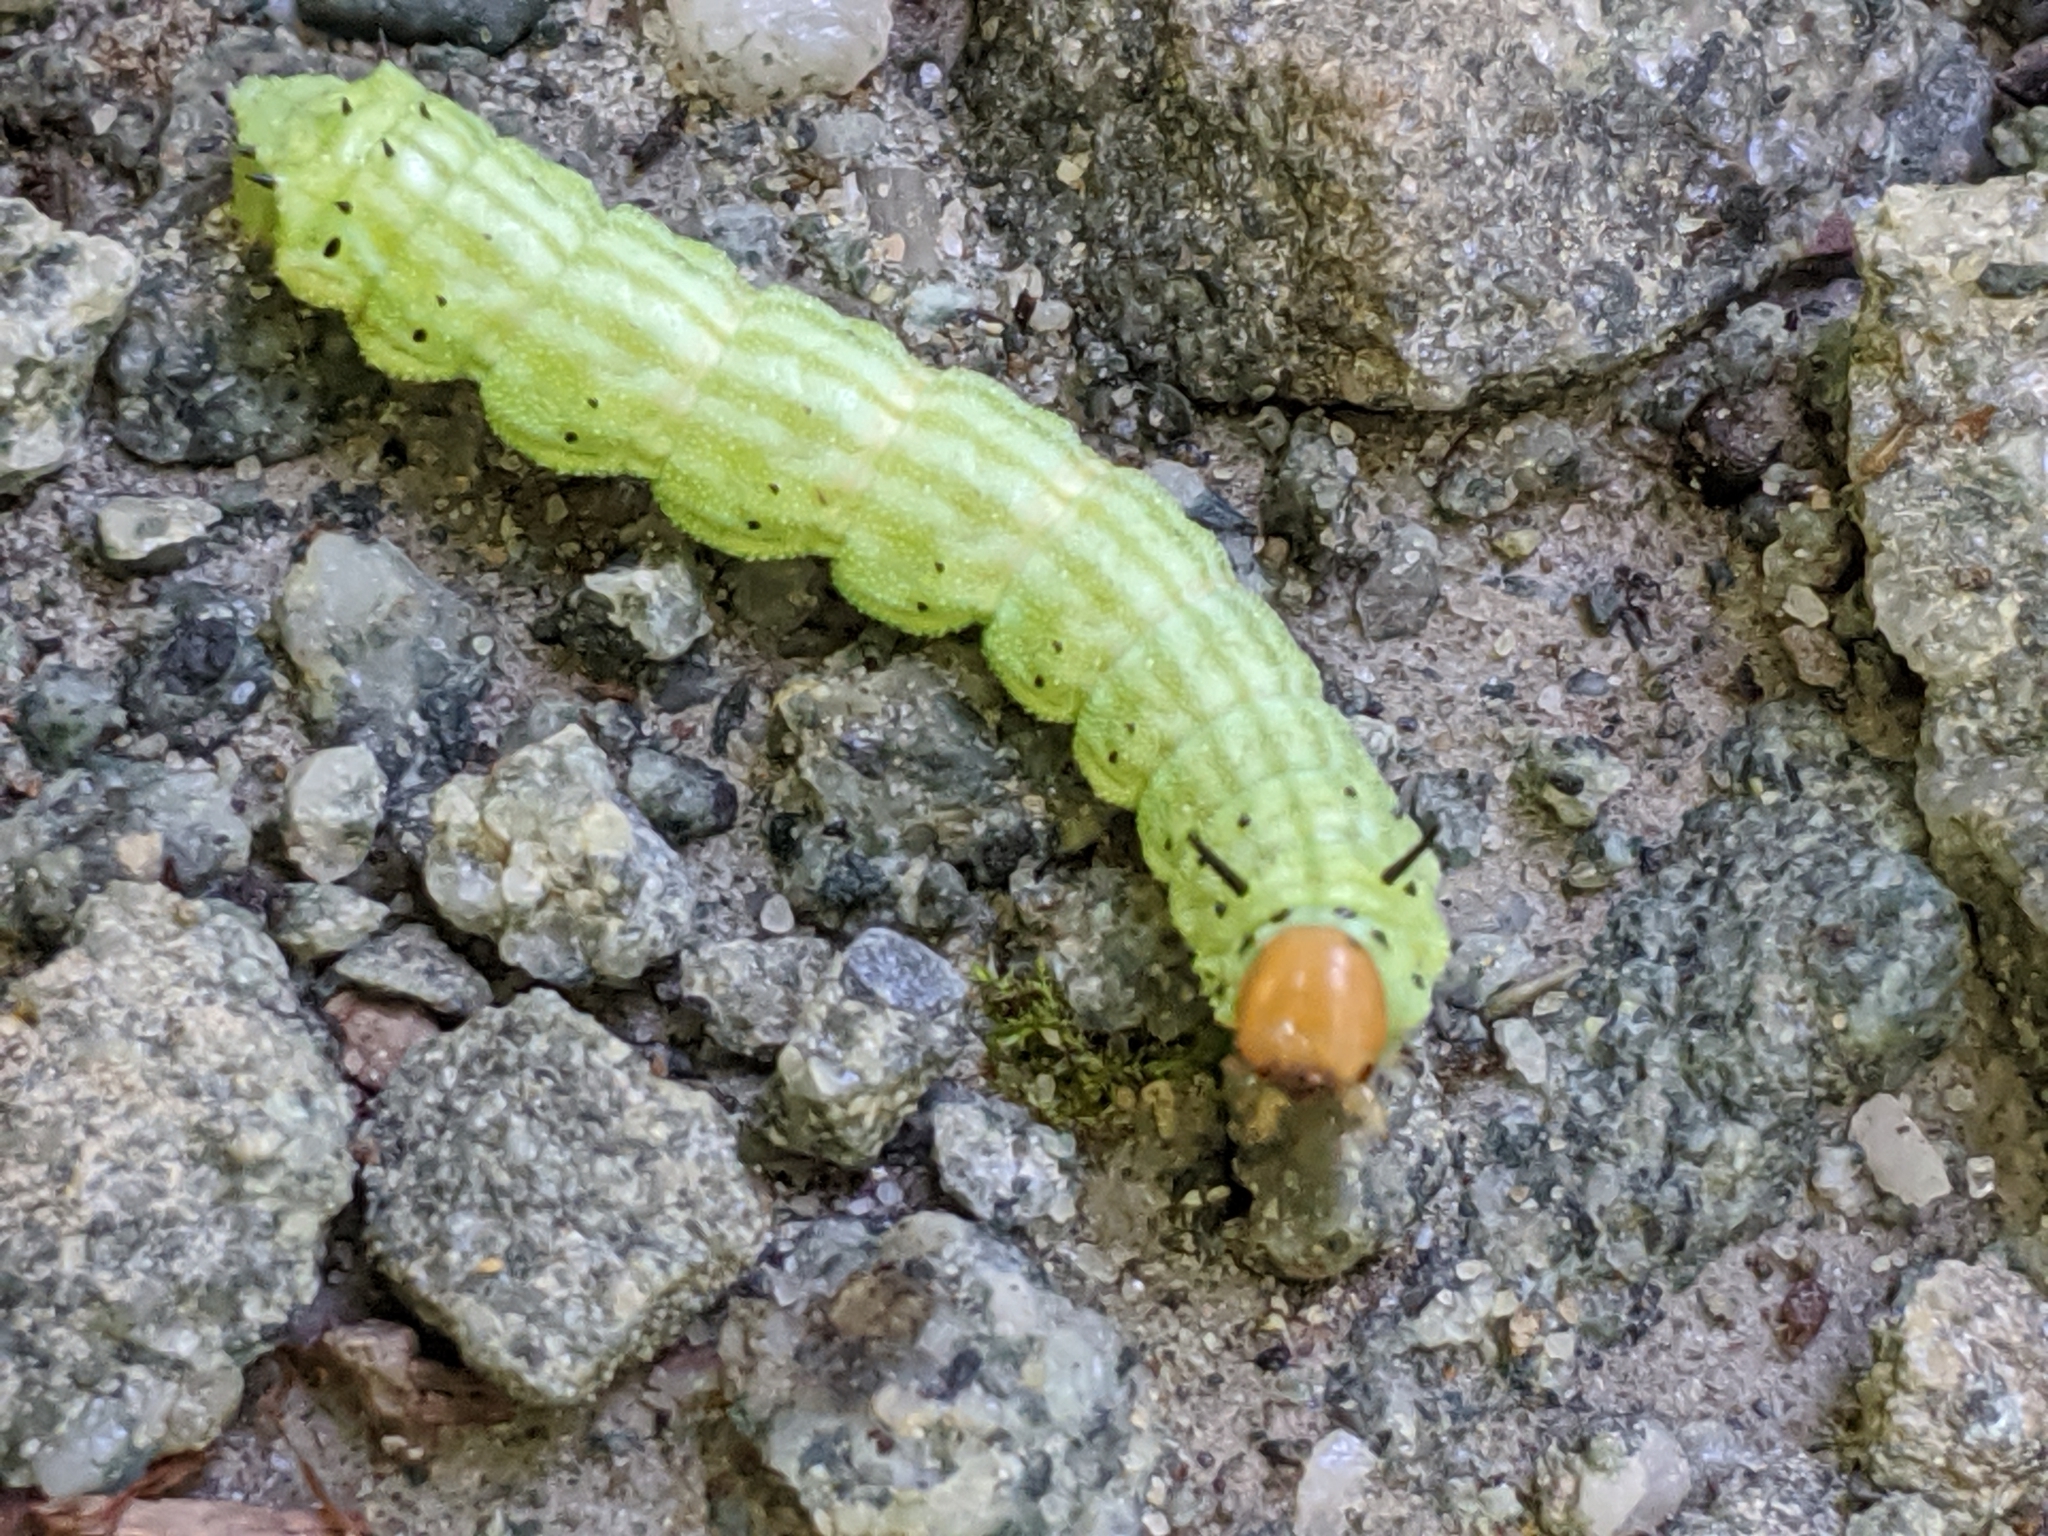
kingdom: Animalia
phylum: Arthropoda
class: Insecta
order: Lepidoptera
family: Saturniidae
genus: Dryocampa
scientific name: Dryocampa rubicunda
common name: Rosy maple moth
